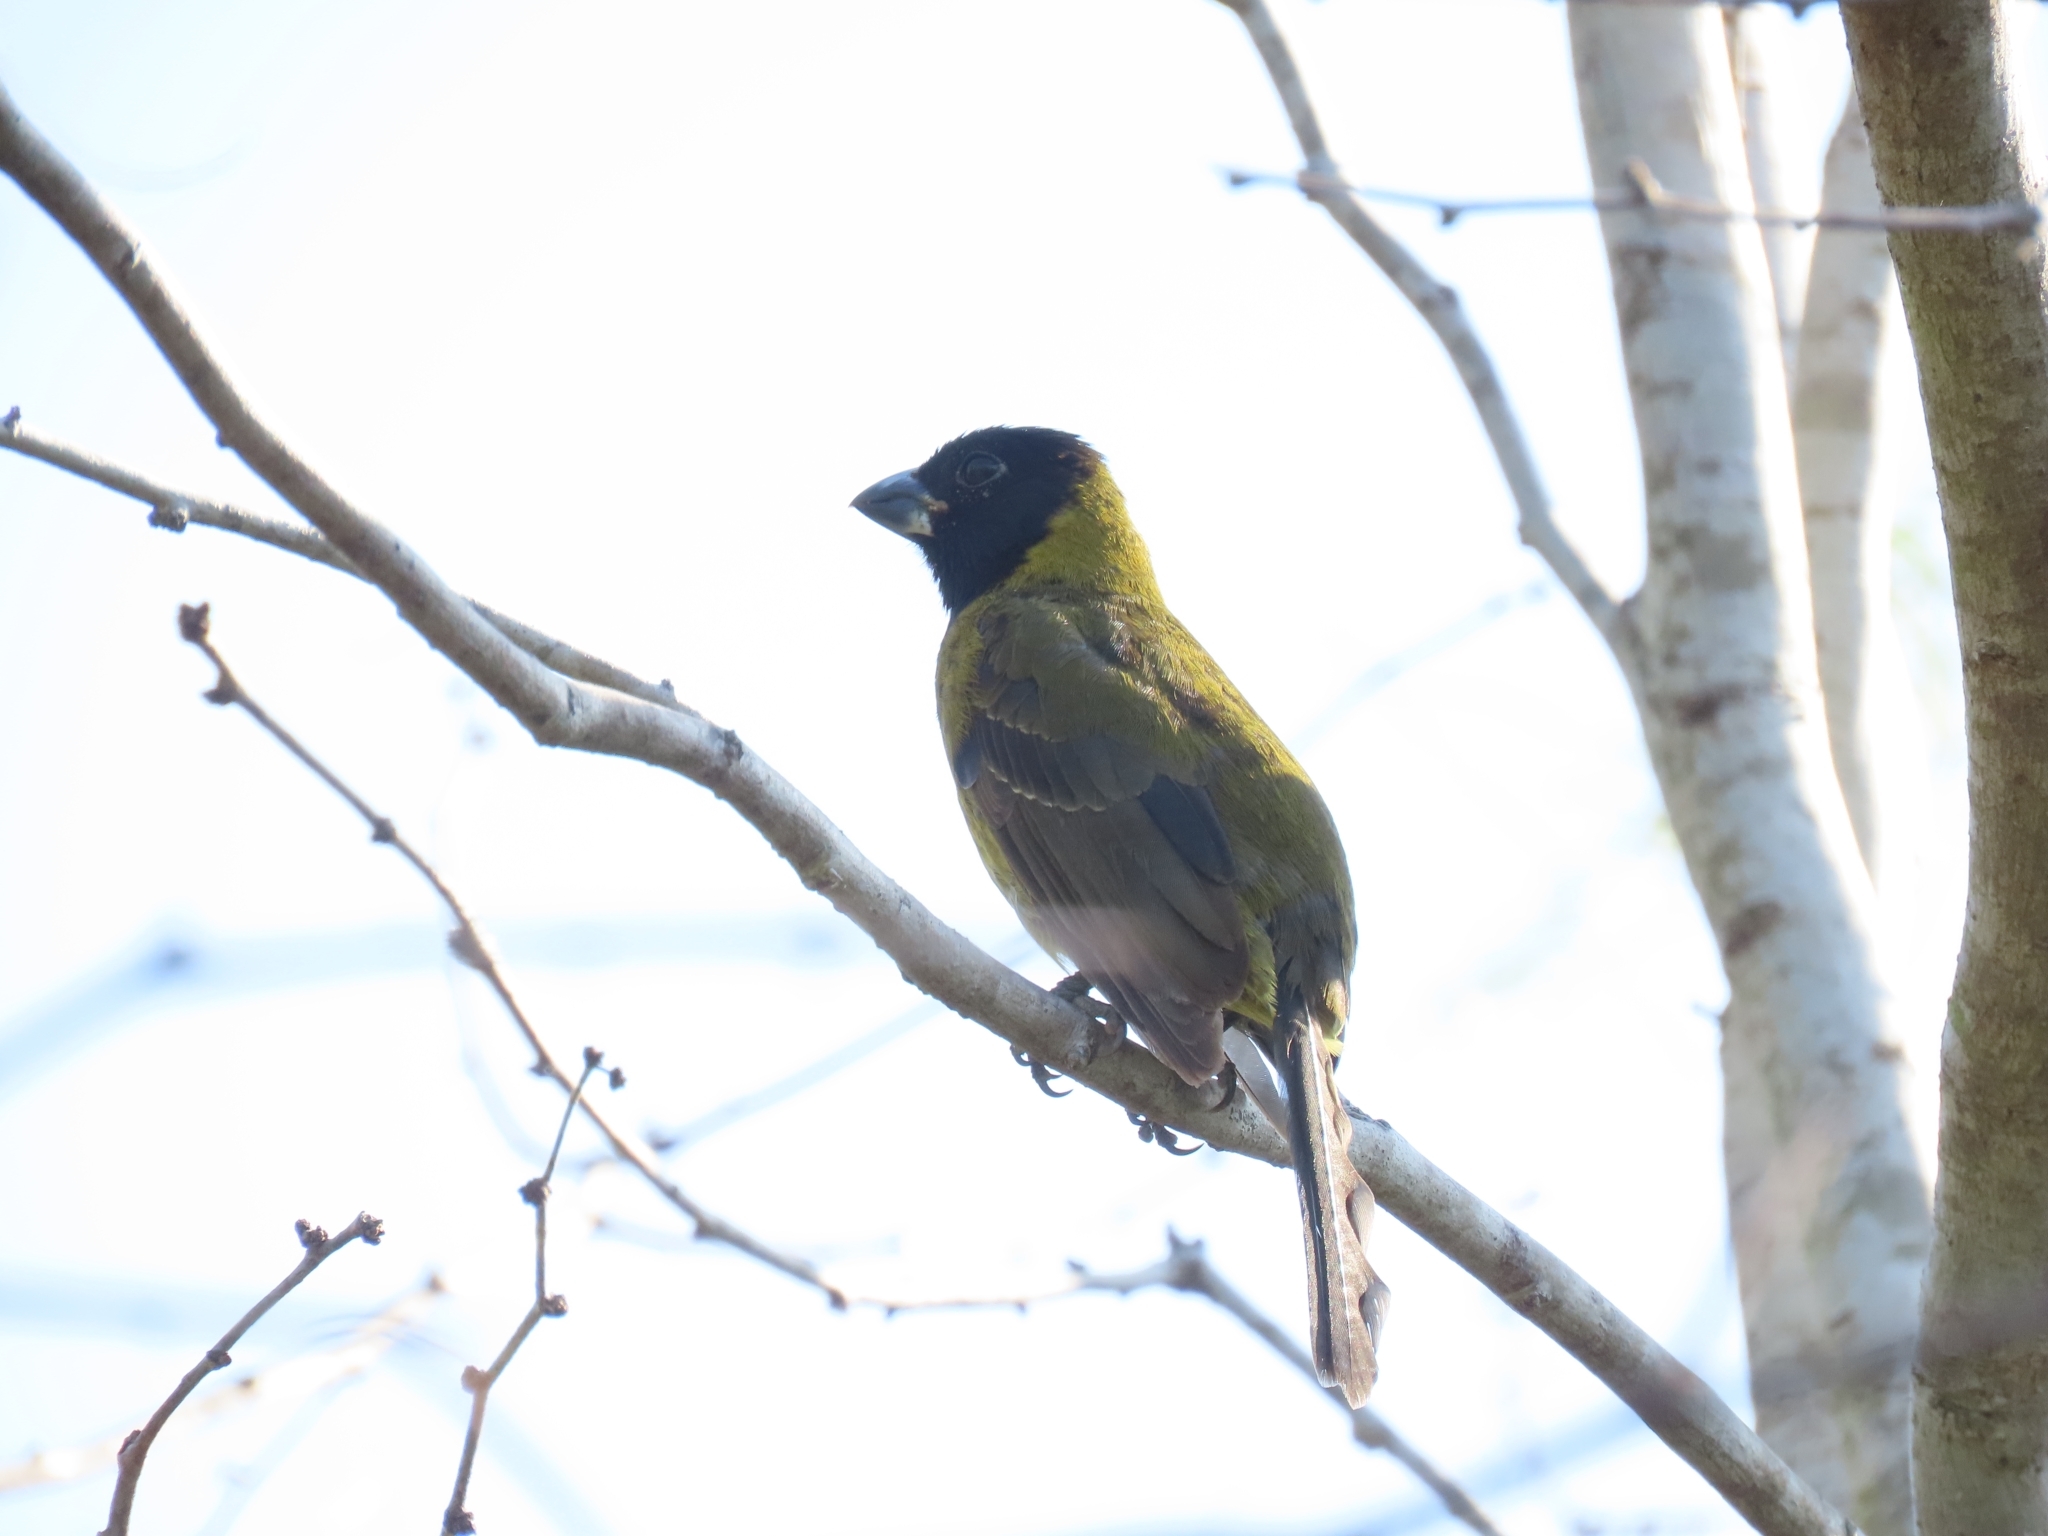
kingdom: Animalia
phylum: Chordata
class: Aves
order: Passeriformes
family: Cardinalidae
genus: Rhodothraupis
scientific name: Rhodothraupis celaeno
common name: Crimson-collared grosbeak
